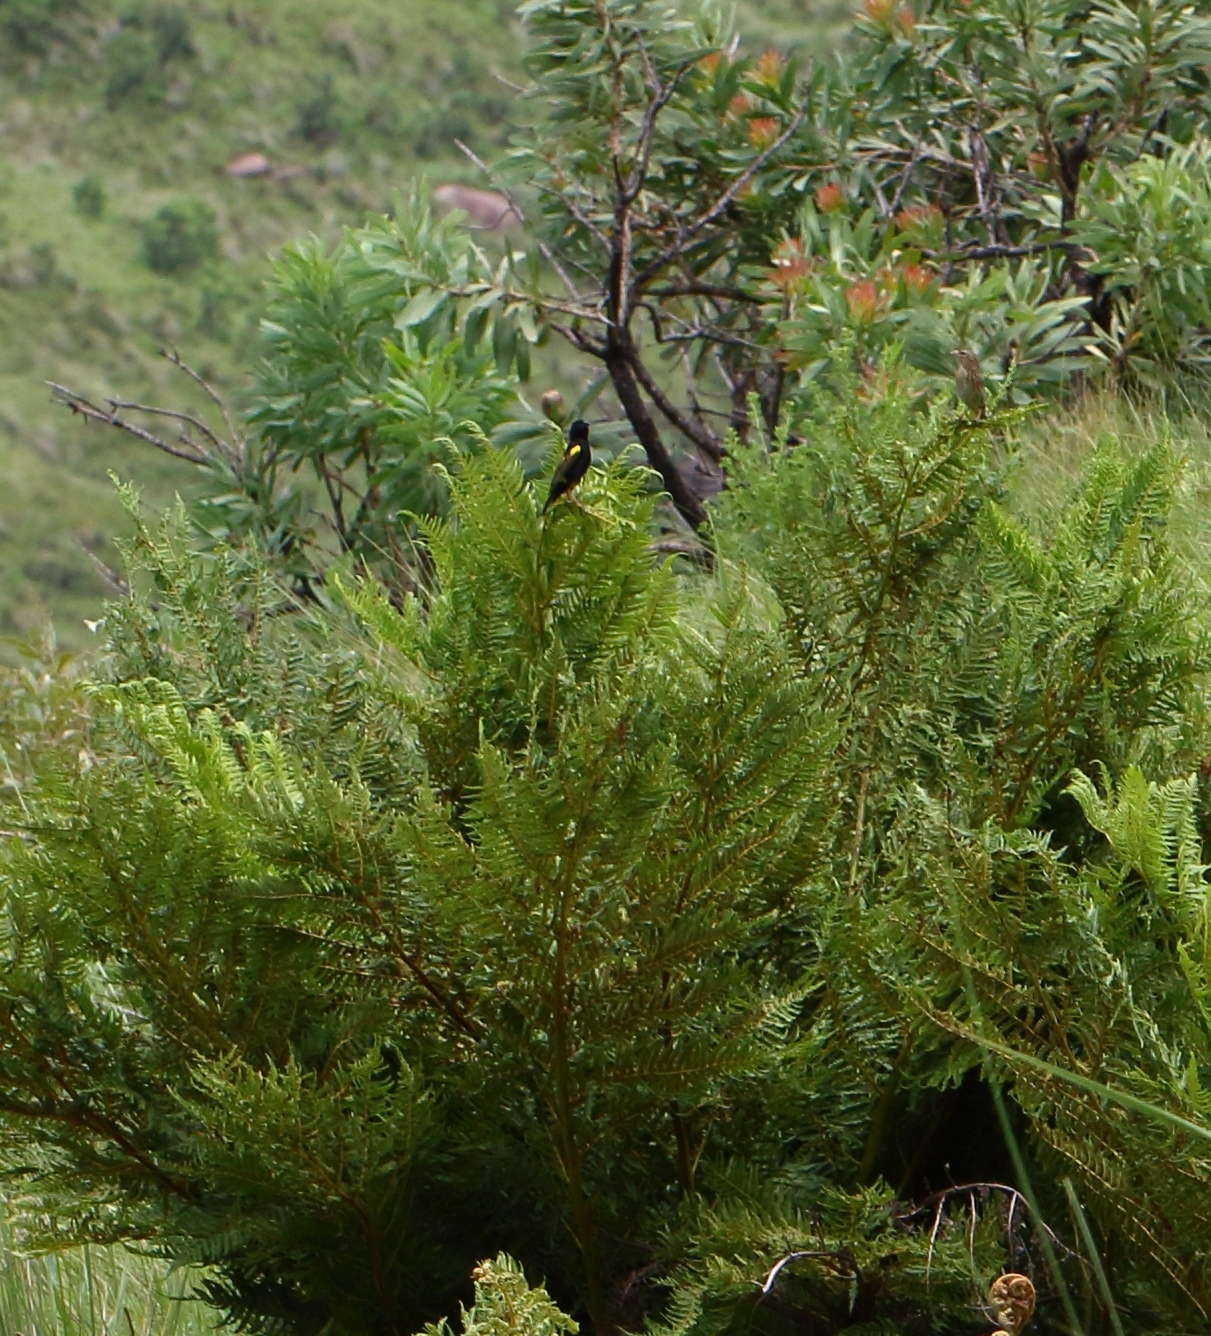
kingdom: Animalia
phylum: Chordata
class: Aves
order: Passeriformes
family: Ploceidae
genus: Euplectes
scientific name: Euplectes capensis
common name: Yellow bishop
